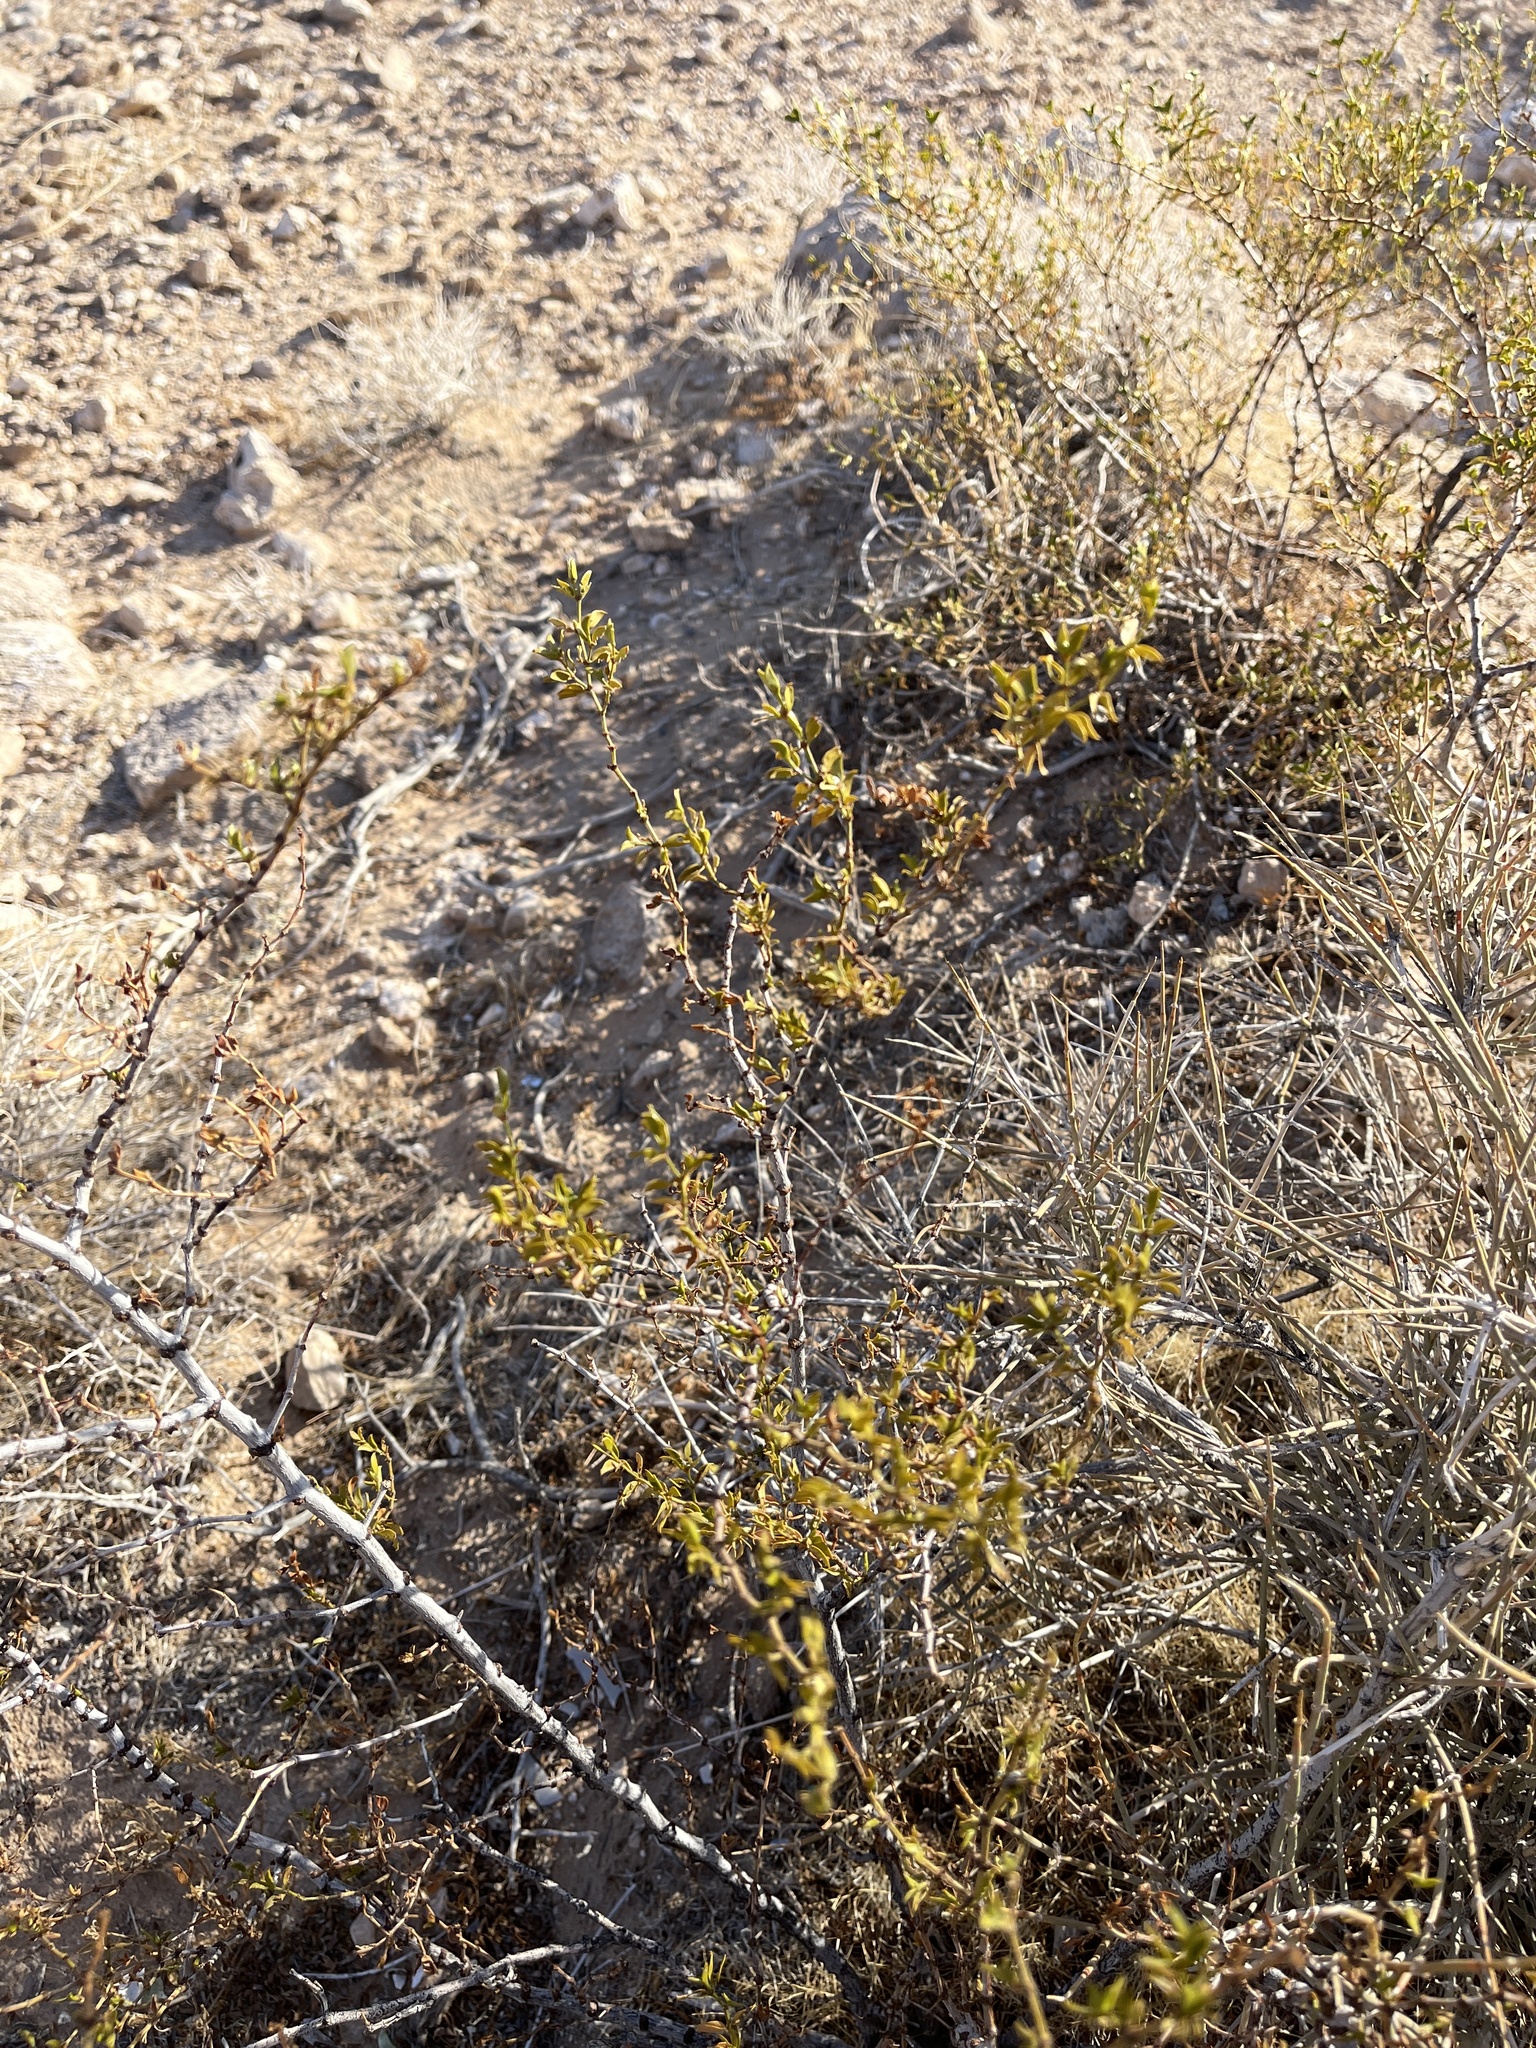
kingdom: Plantae
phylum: Tracheophyta
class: Magnoliopsida
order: Zygophyllales
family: Zygophyllaceae
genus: Larrea
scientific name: Larrea tridentata
